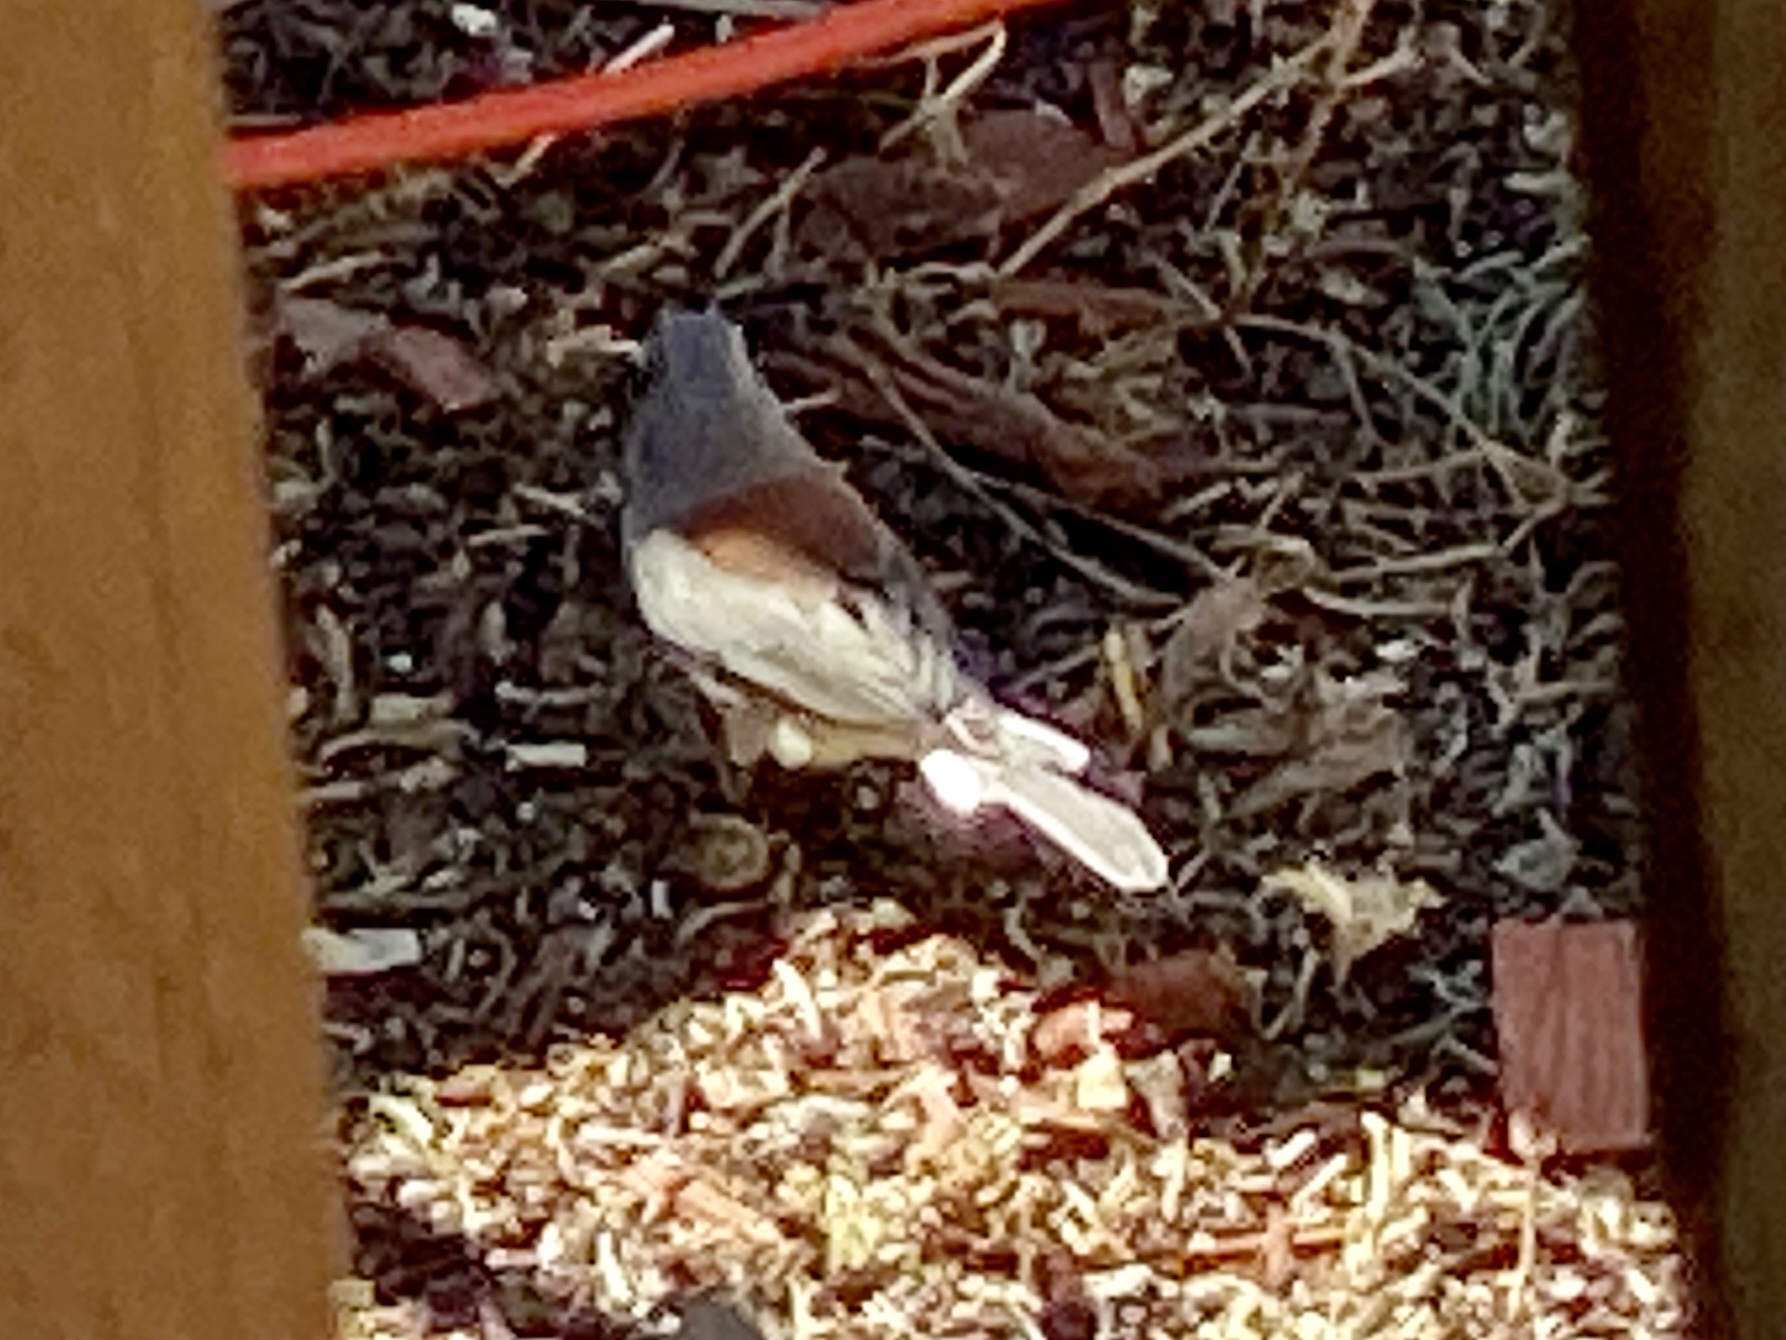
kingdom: Animalia
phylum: Chordata
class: Aves
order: Passeriformes
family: Passerellidae
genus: Junco
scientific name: Junco hyemalis
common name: Dark-eyed junco
